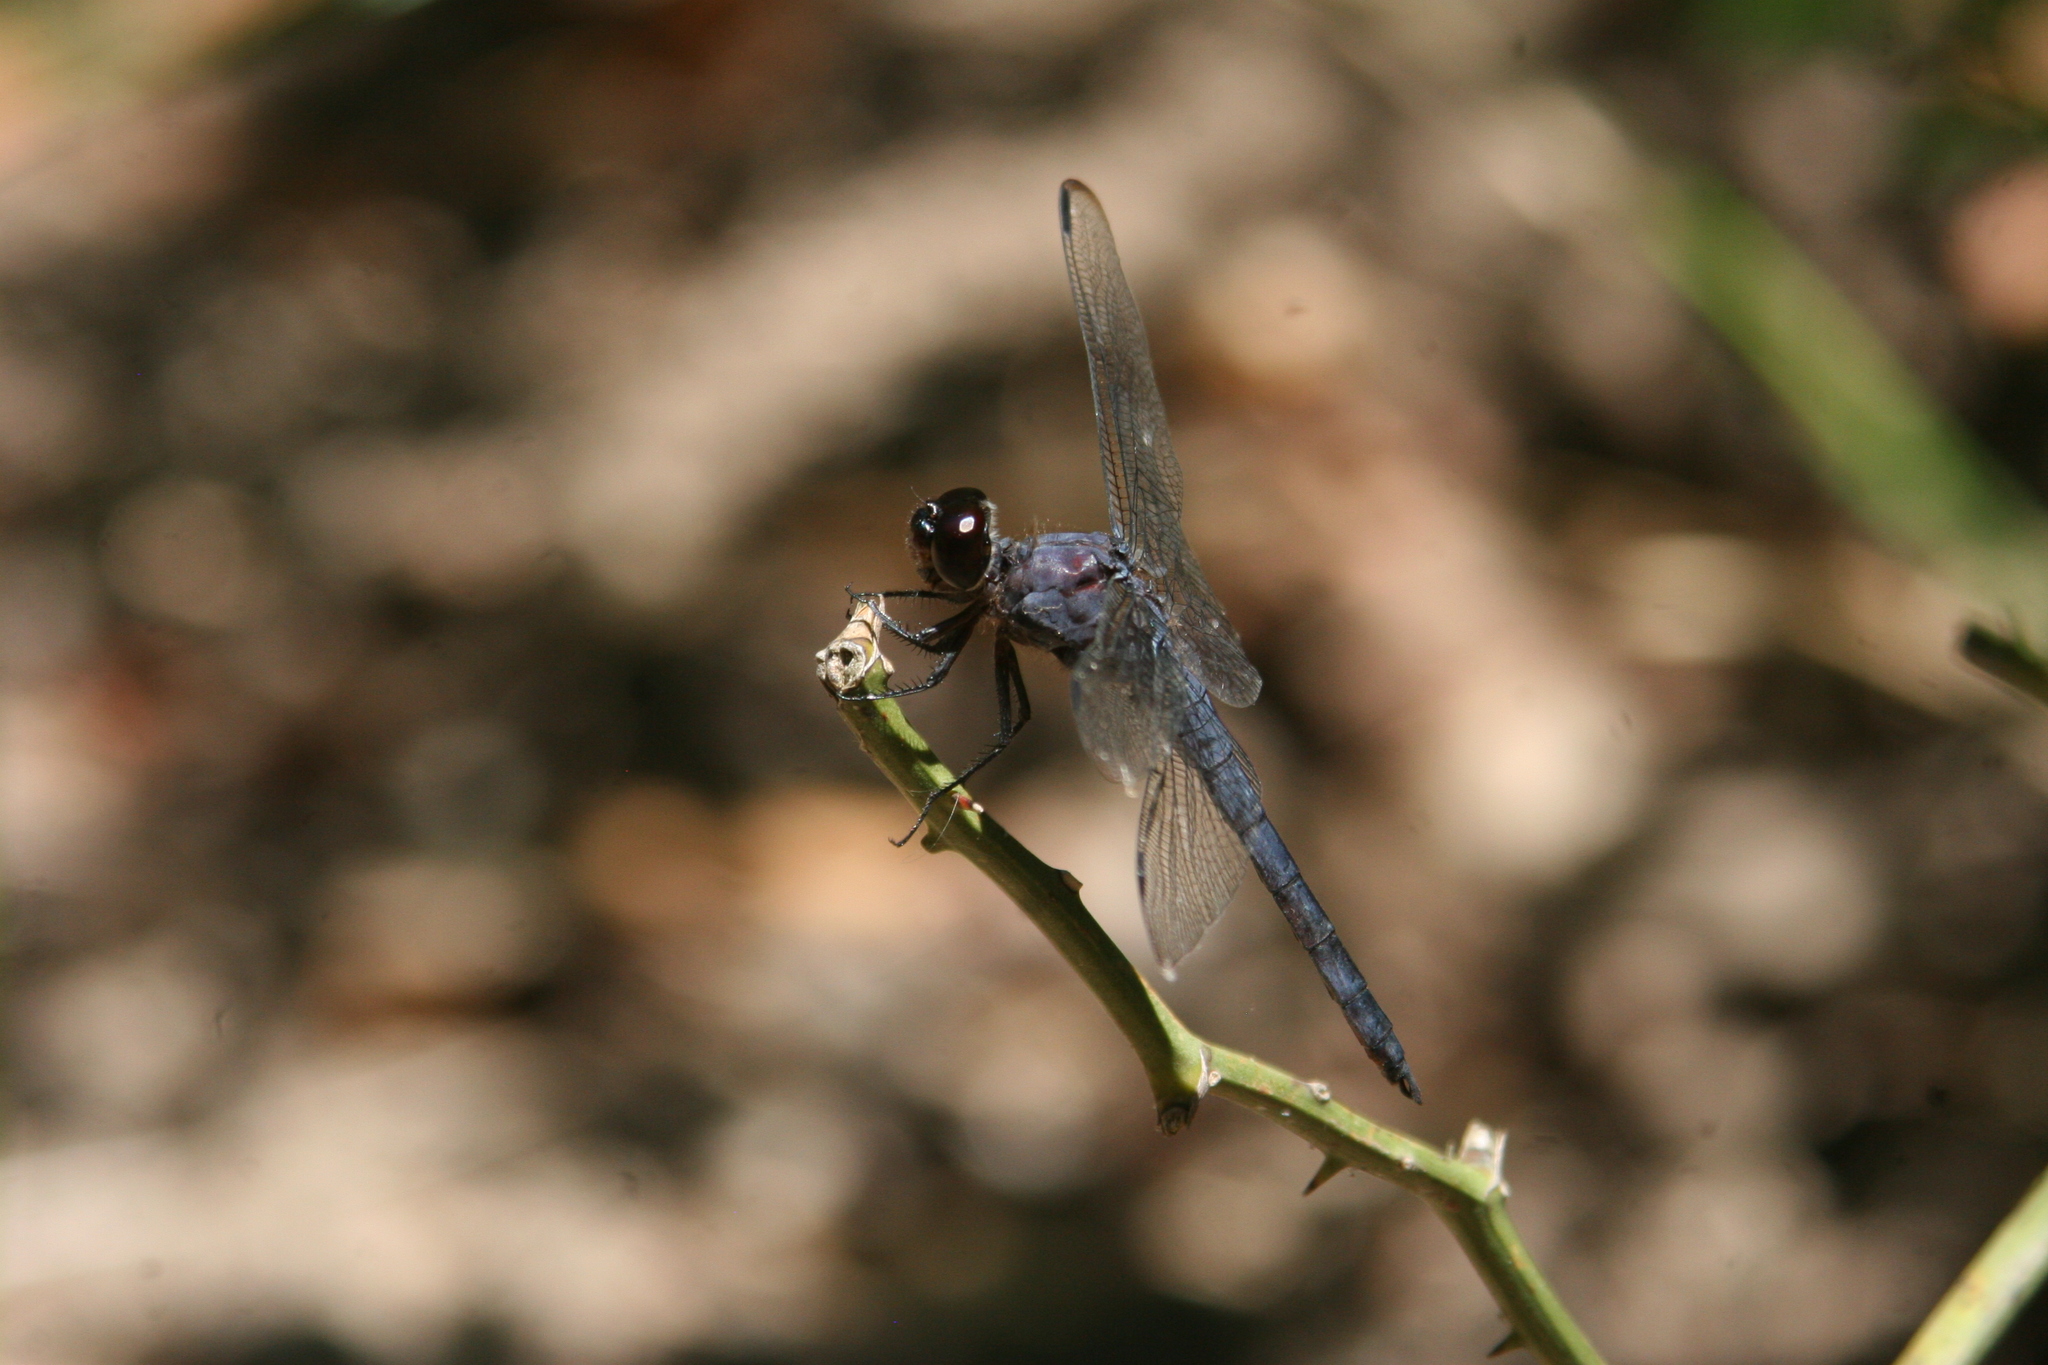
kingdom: Animalia
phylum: Arthropoda
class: Insecta
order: Odonata
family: Libellulidae
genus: Libellula
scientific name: Libellula incesta
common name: Slaty skimmer
